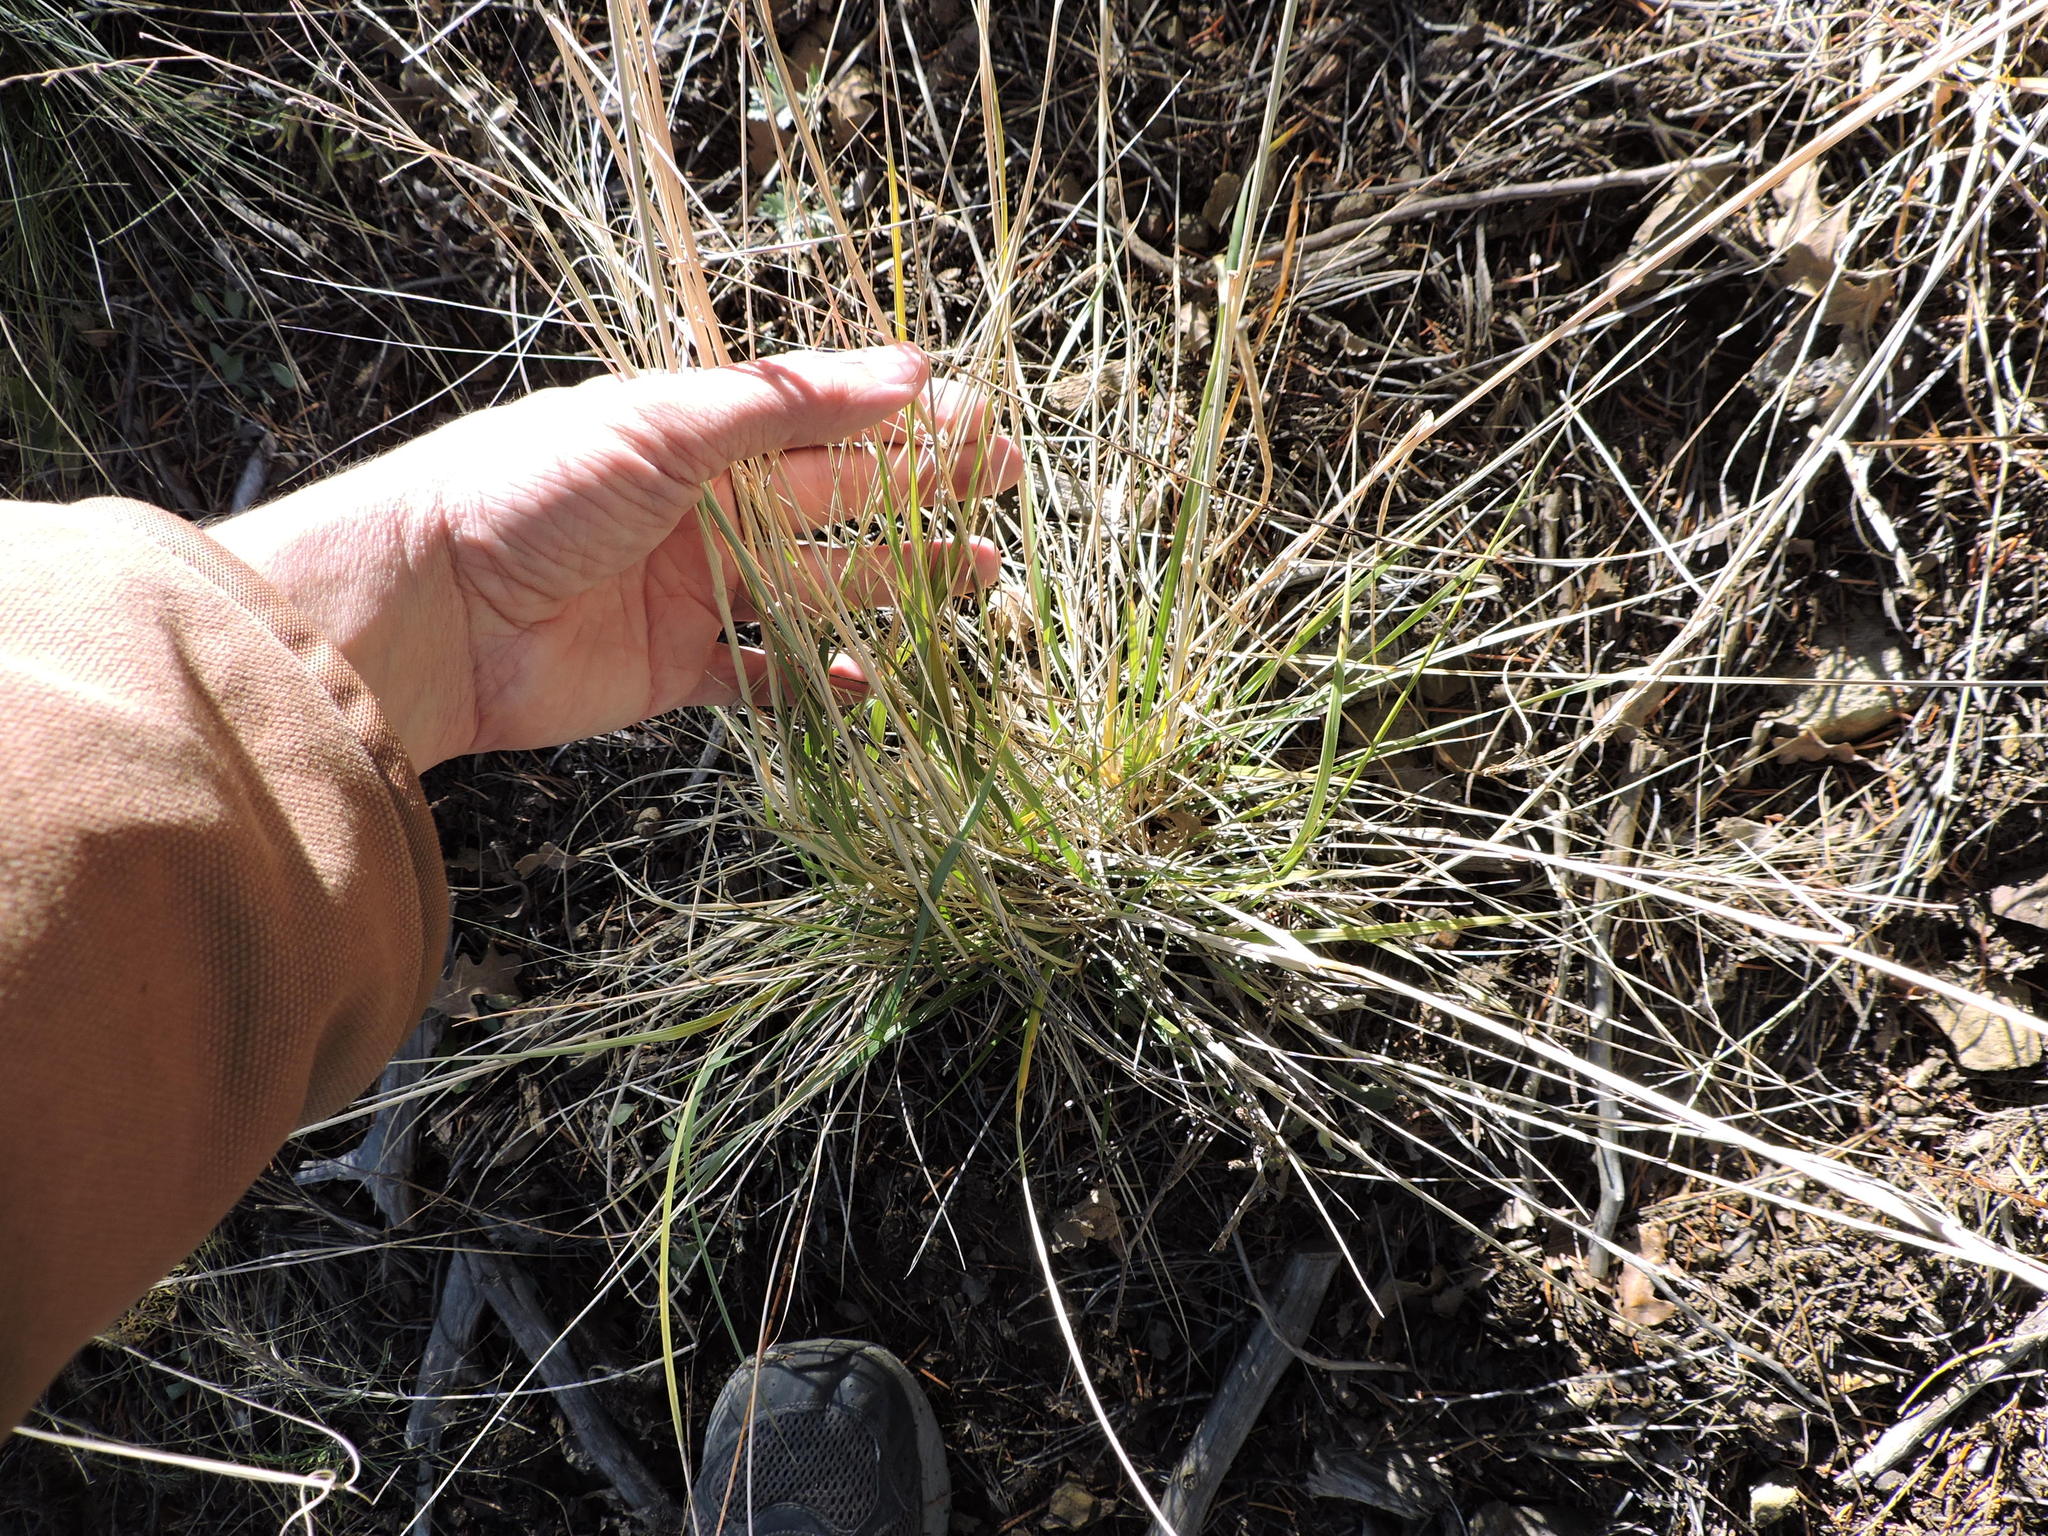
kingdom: Plantae
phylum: Tracheophyta
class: Liliopsida
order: Poales
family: Poaceae
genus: Elymus
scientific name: Elymus longifolius
